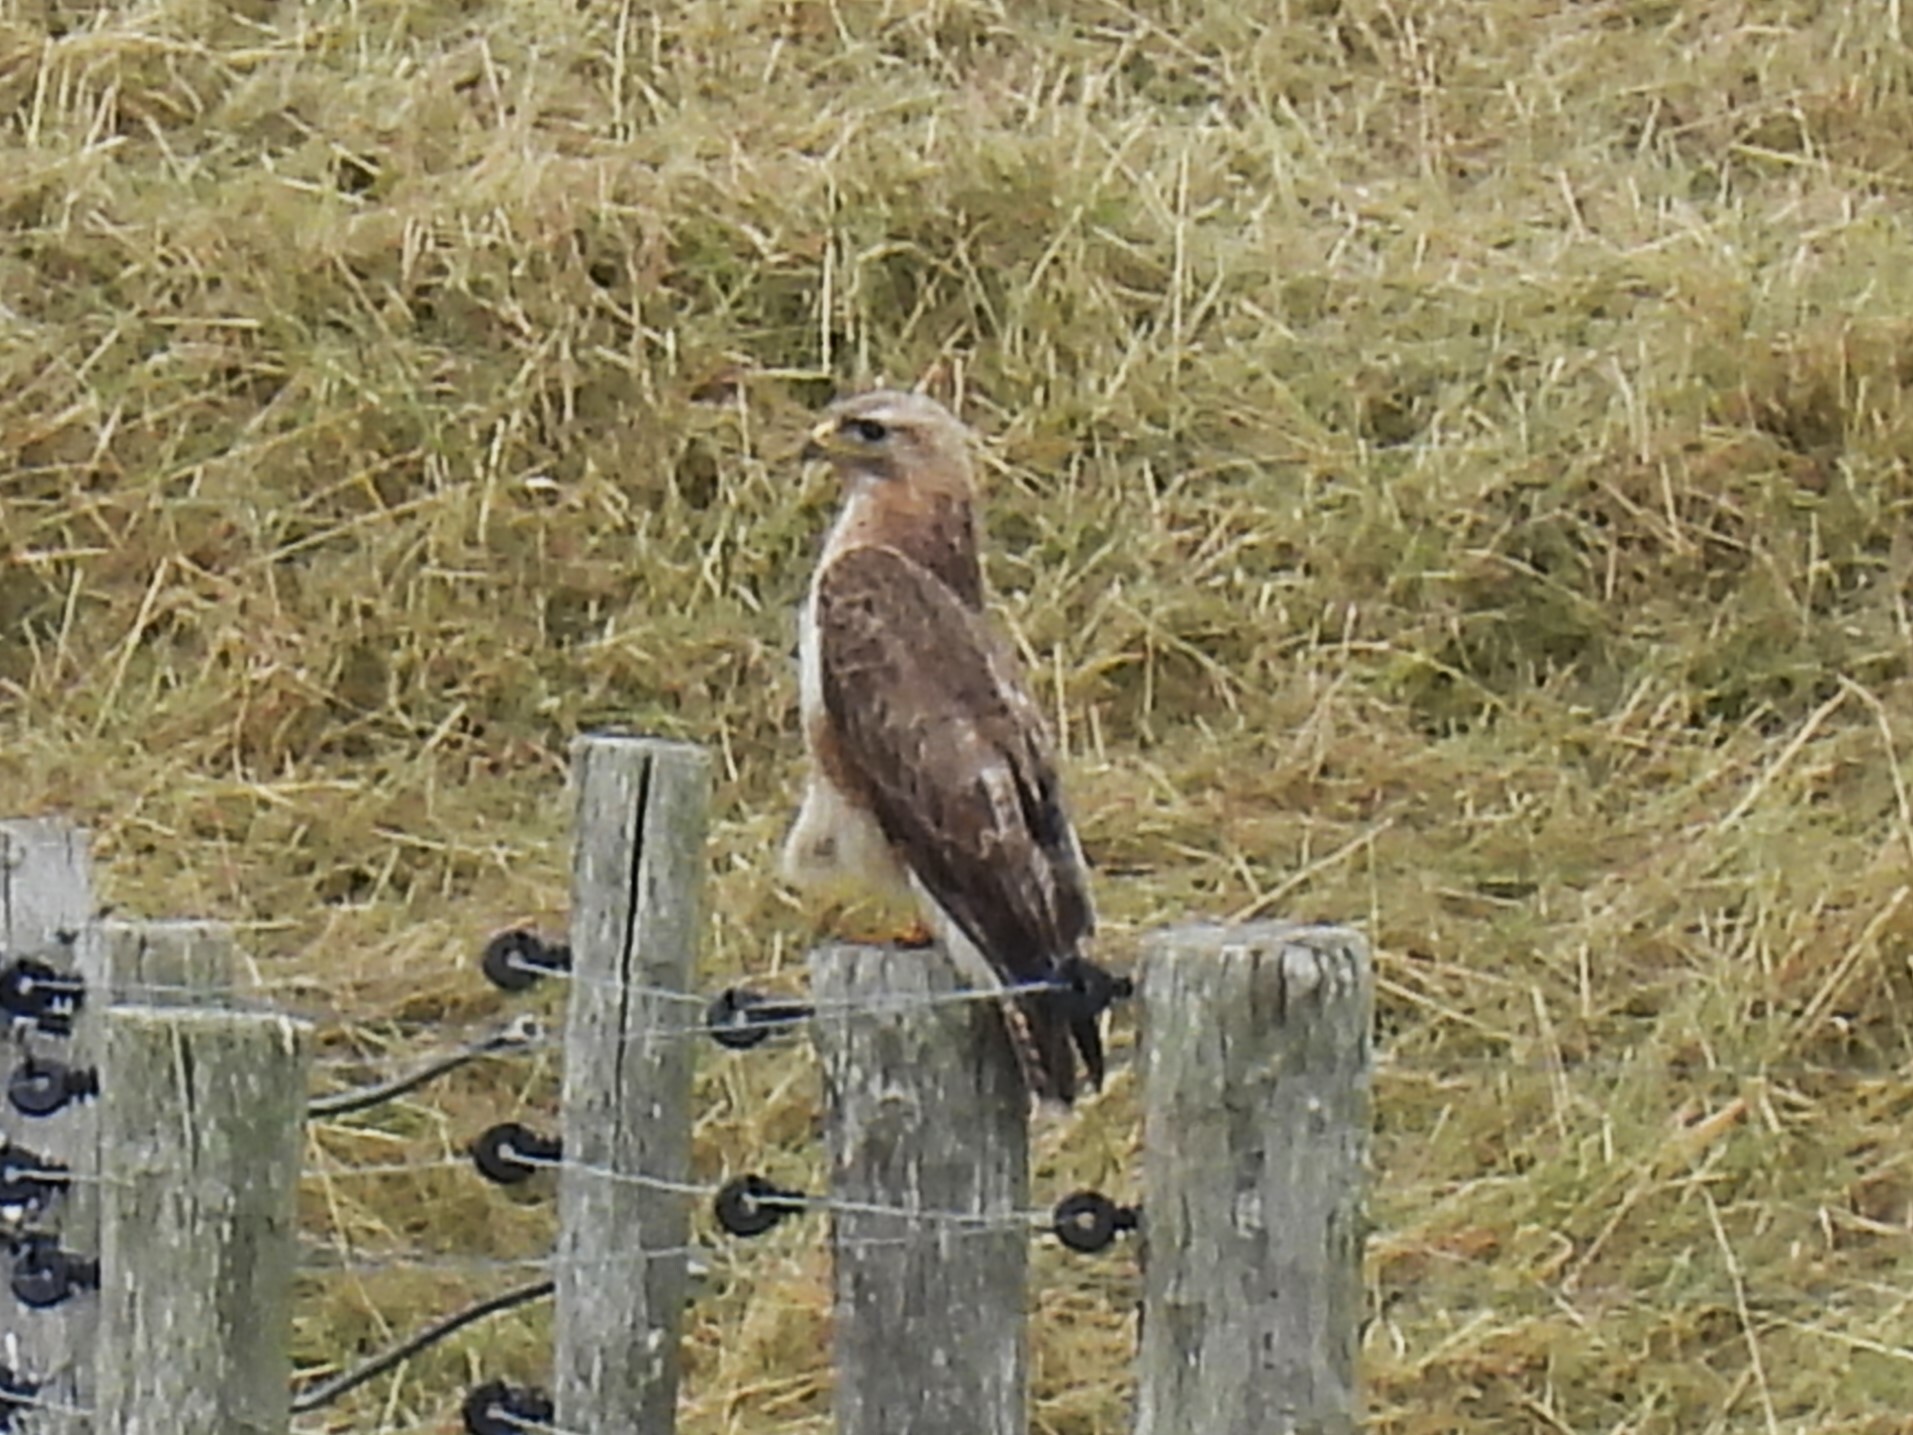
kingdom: Animalia
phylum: Chordata
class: Aves
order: Accipitriformes
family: Accipitridae
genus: Buteo
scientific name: Buteo buteo
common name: Common buzzard
